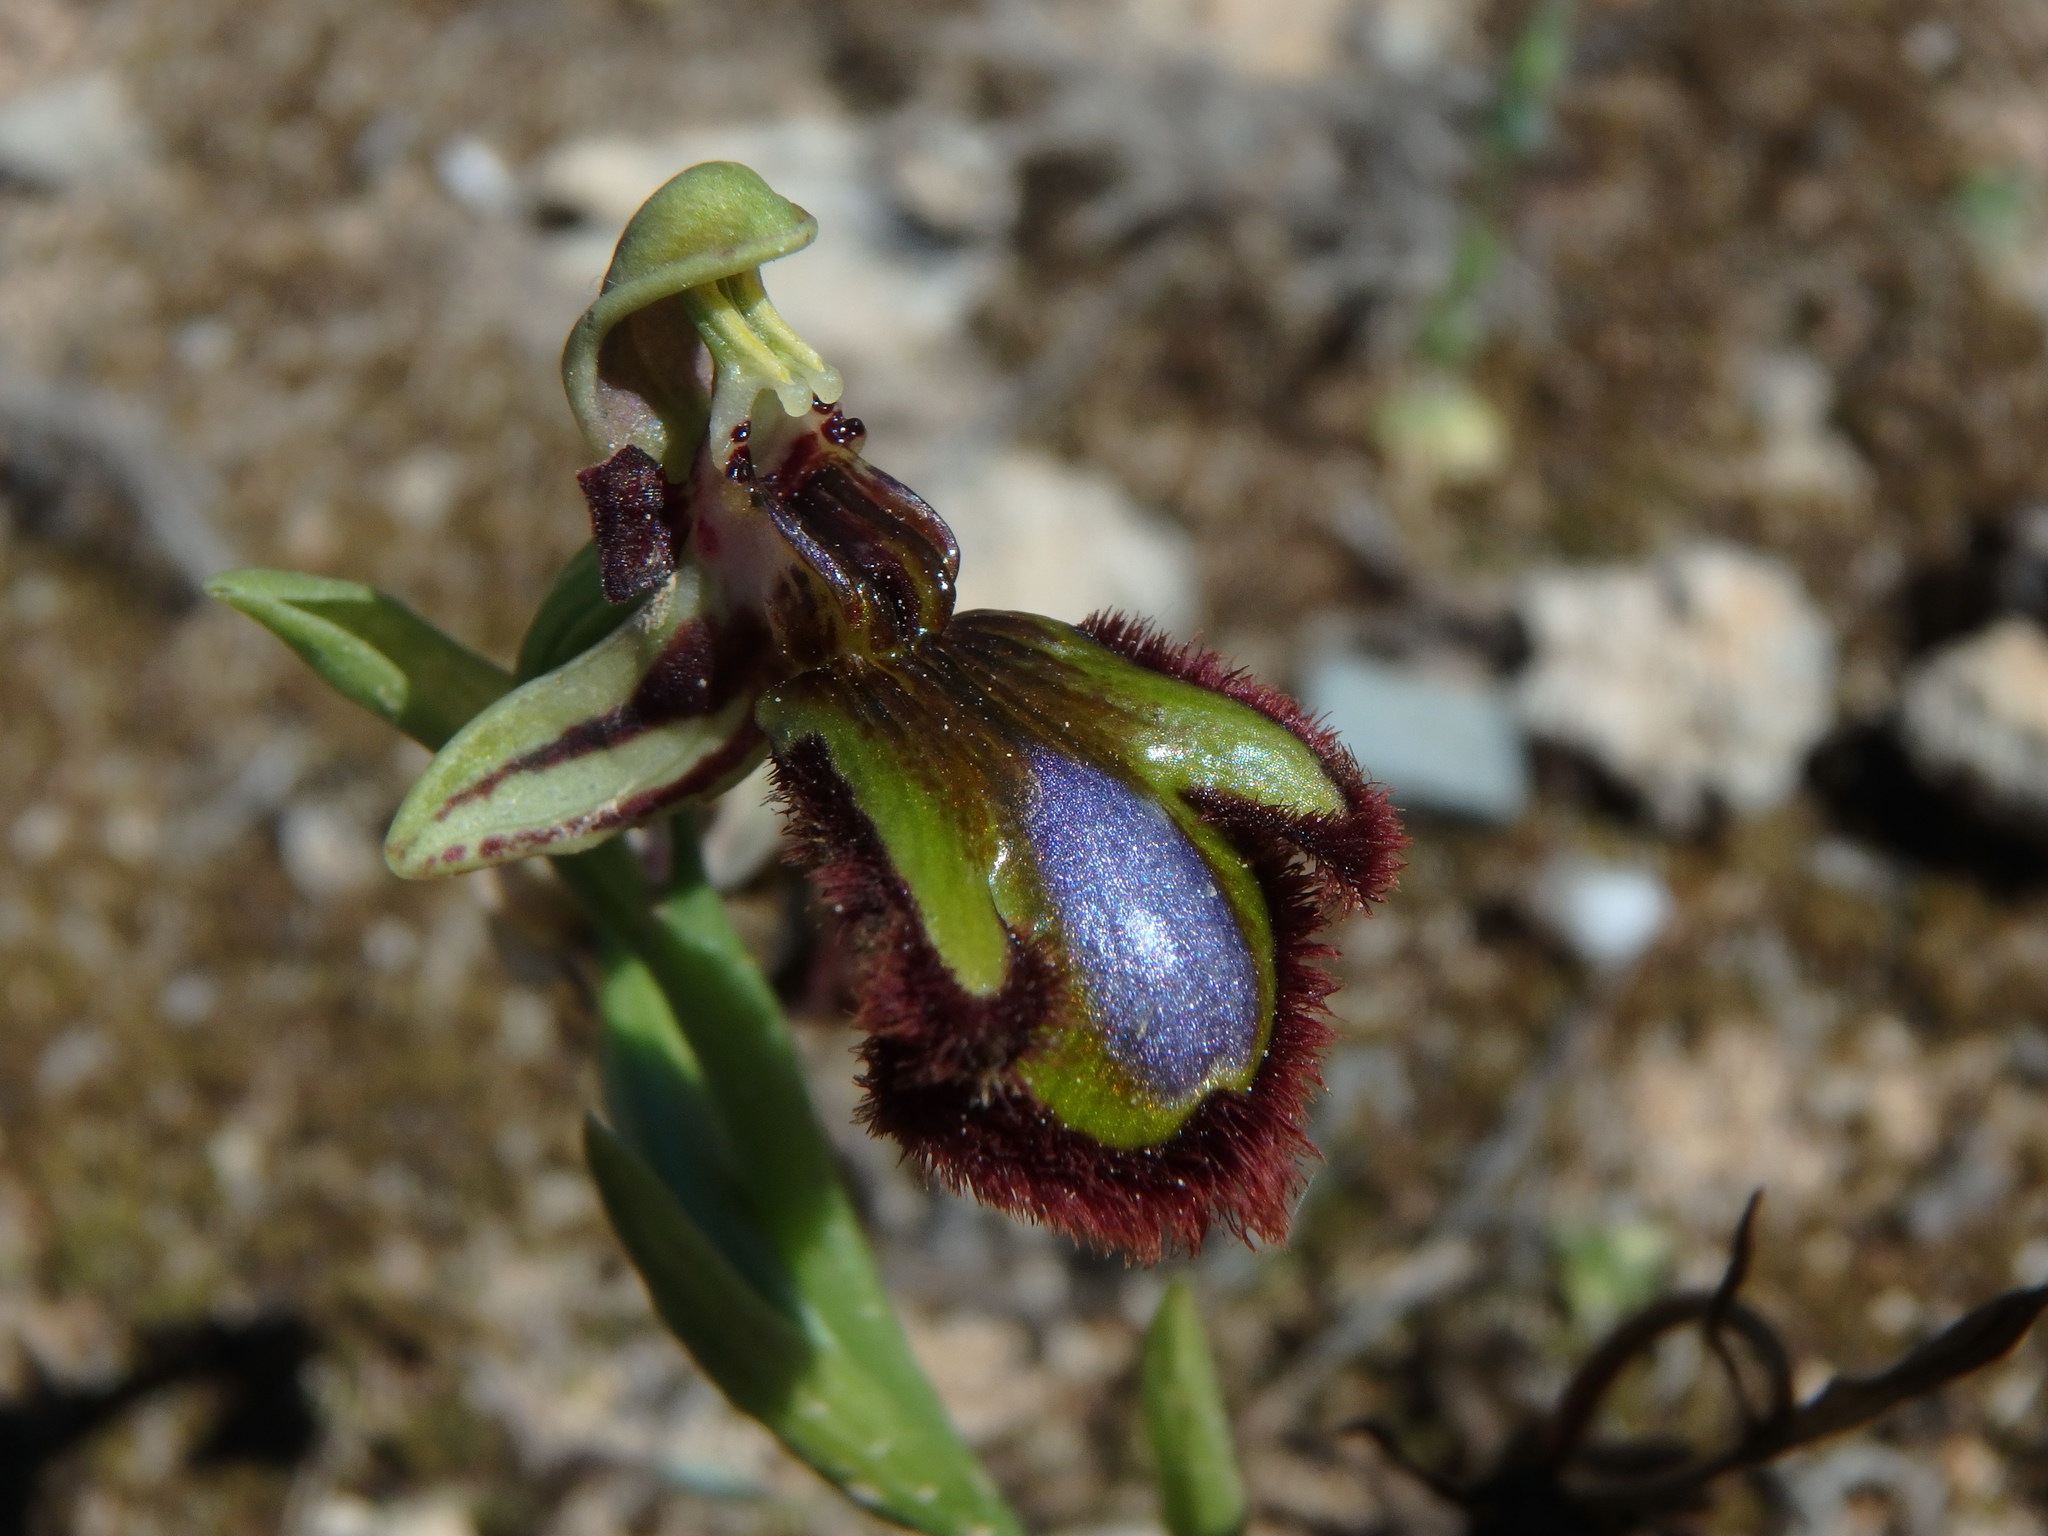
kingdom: Plantae
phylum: Tracheophyta
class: Liliopsida
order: Asparagales
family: Orchidaceae
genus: Ophrys
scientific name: Ophrys speculum
